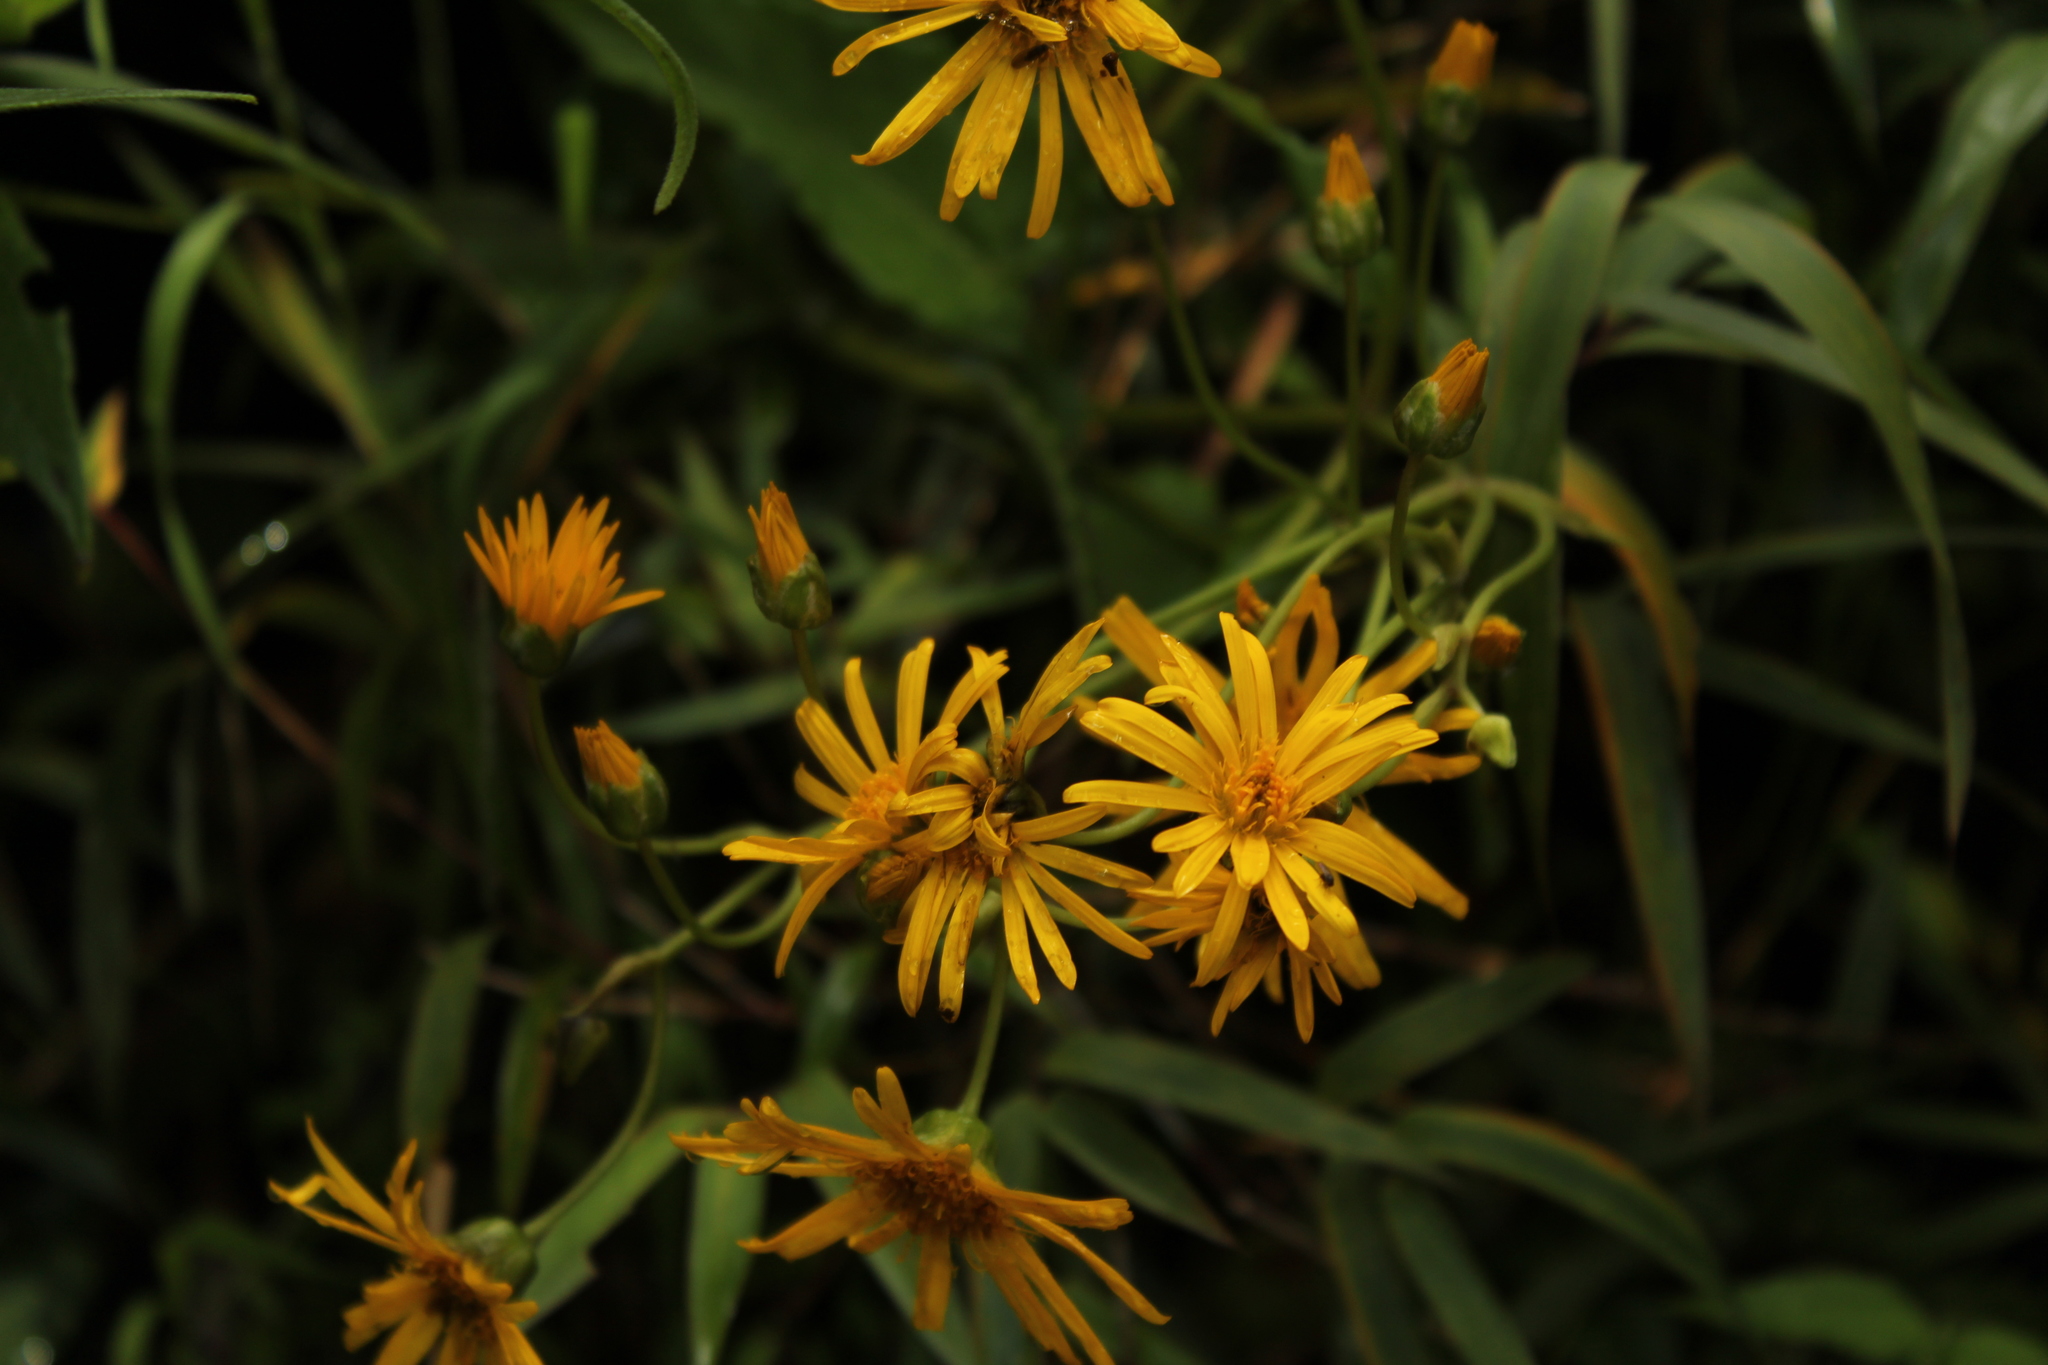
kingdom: Plantae
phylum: Tracheophyta
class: Magnoliopsida
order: Asterales
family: Asteraceae
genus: Munnozia
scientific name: Munnozia senecionidis
